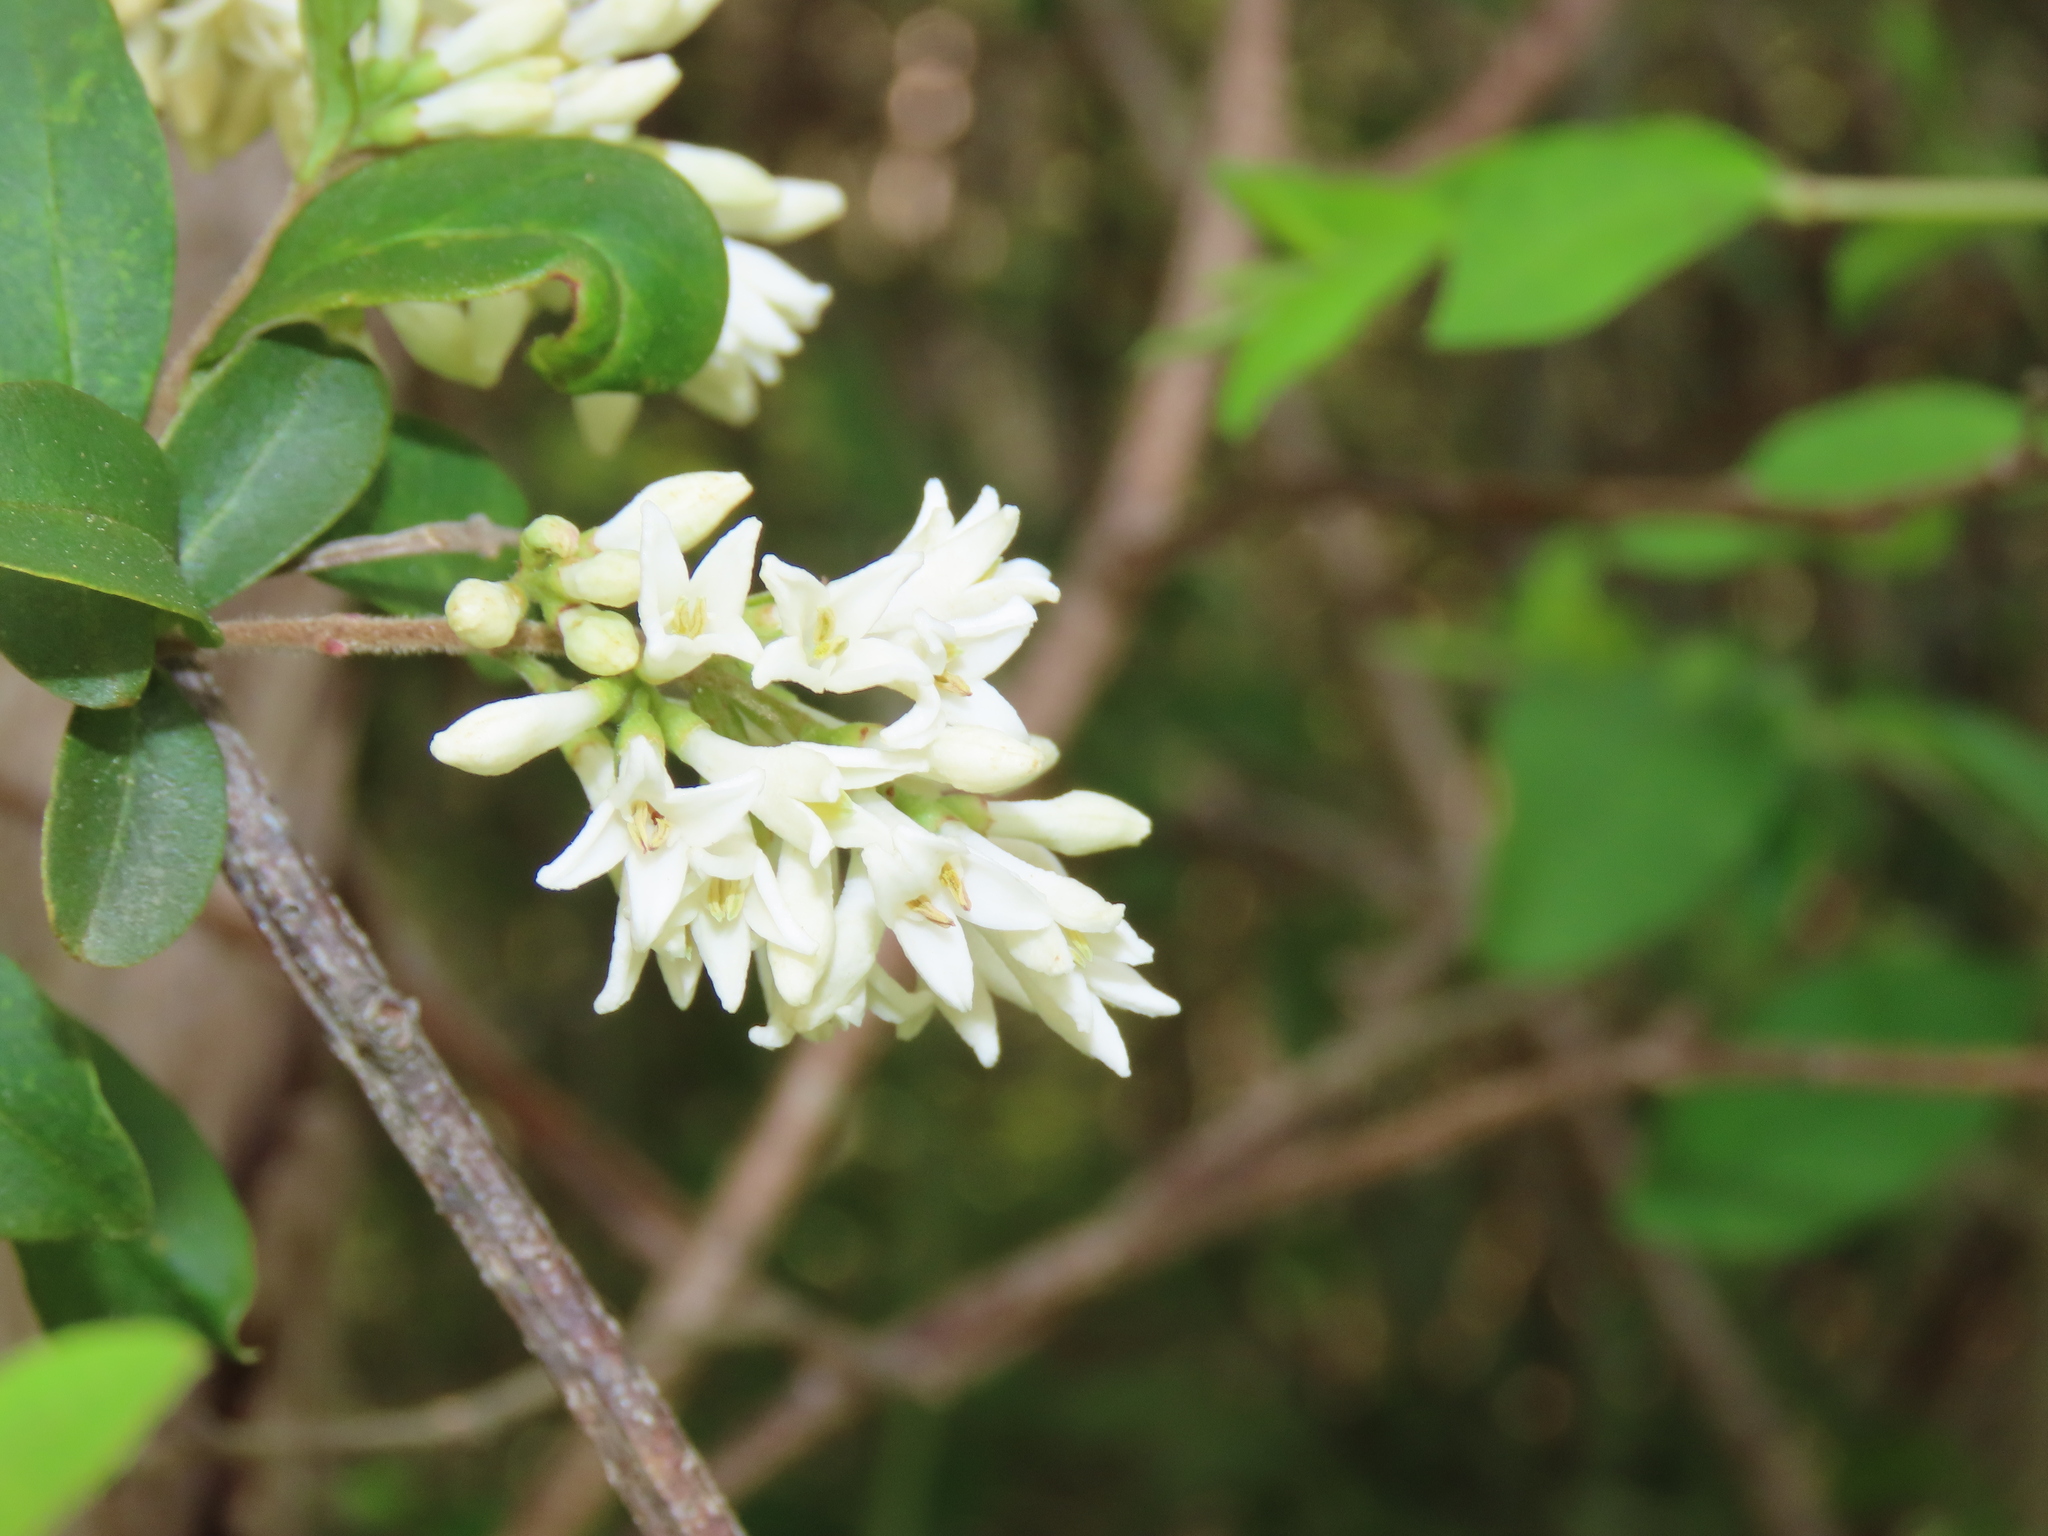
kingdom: Plantae
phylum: Tracheophyta
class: Magnoliopsida
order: Lamiales
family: Oleaceae
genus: Ligustrum
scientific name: Ligustrum obtusifolium
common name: Border privet
